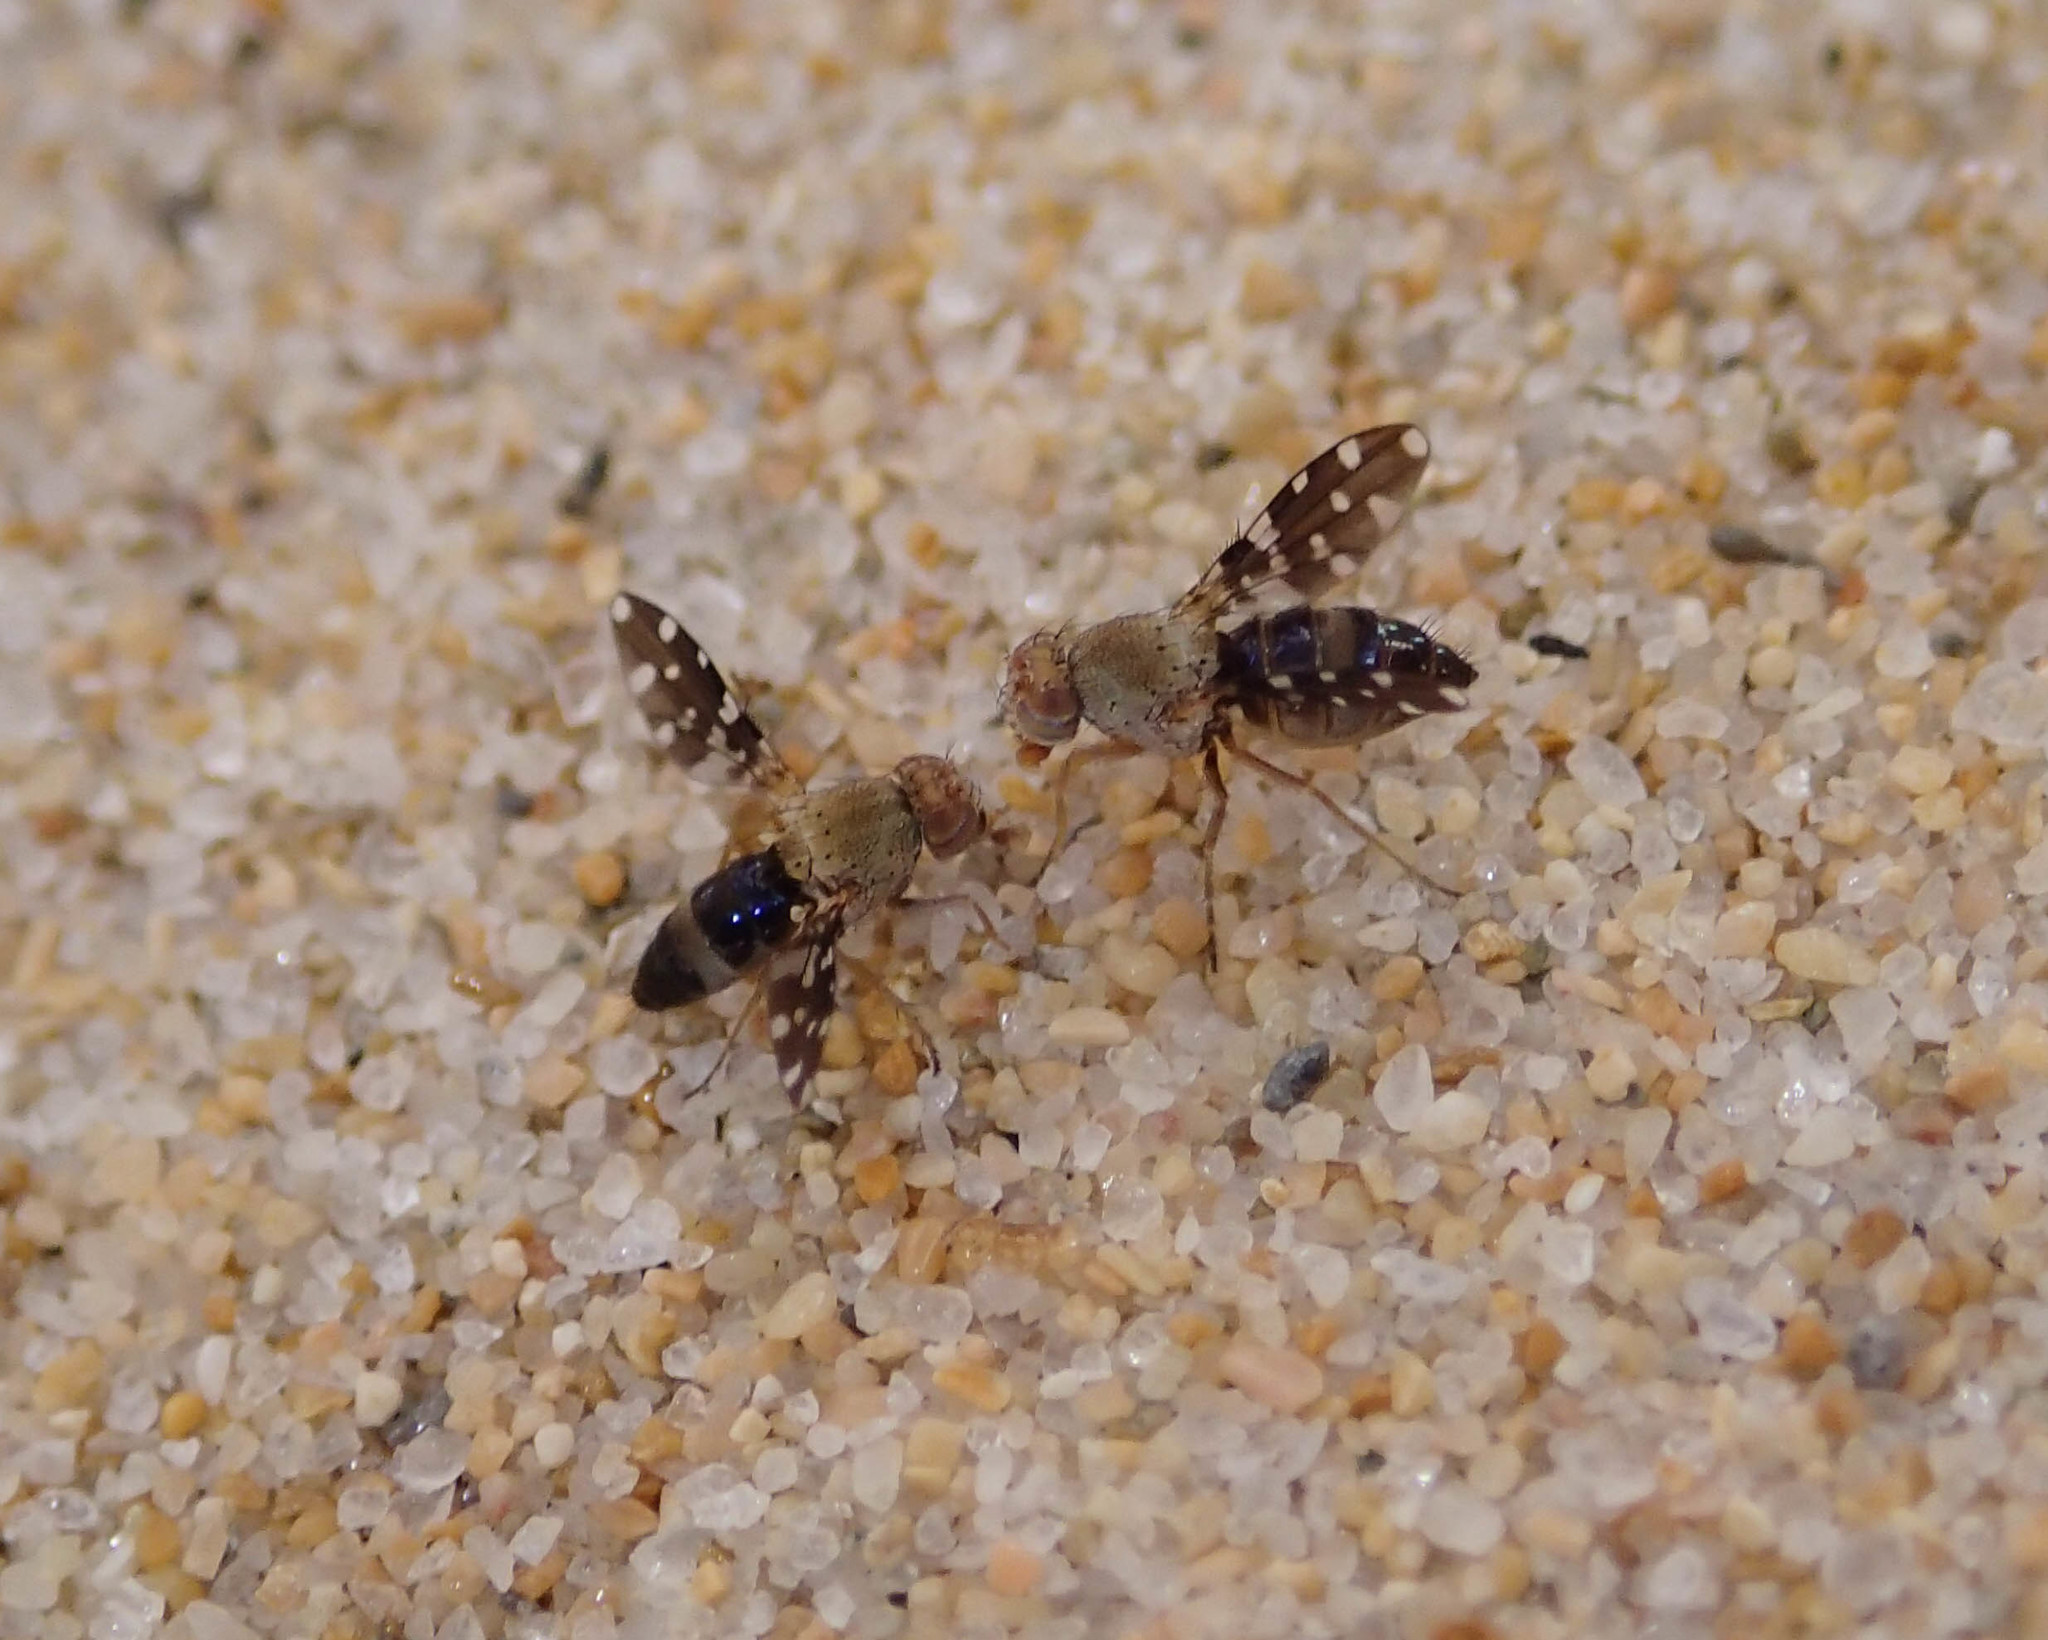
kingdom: Animalia
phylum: Arthropoda
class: Insecta
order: Diptera
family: Ephydridae
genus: Actocetor
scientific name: Actocetor indicus
